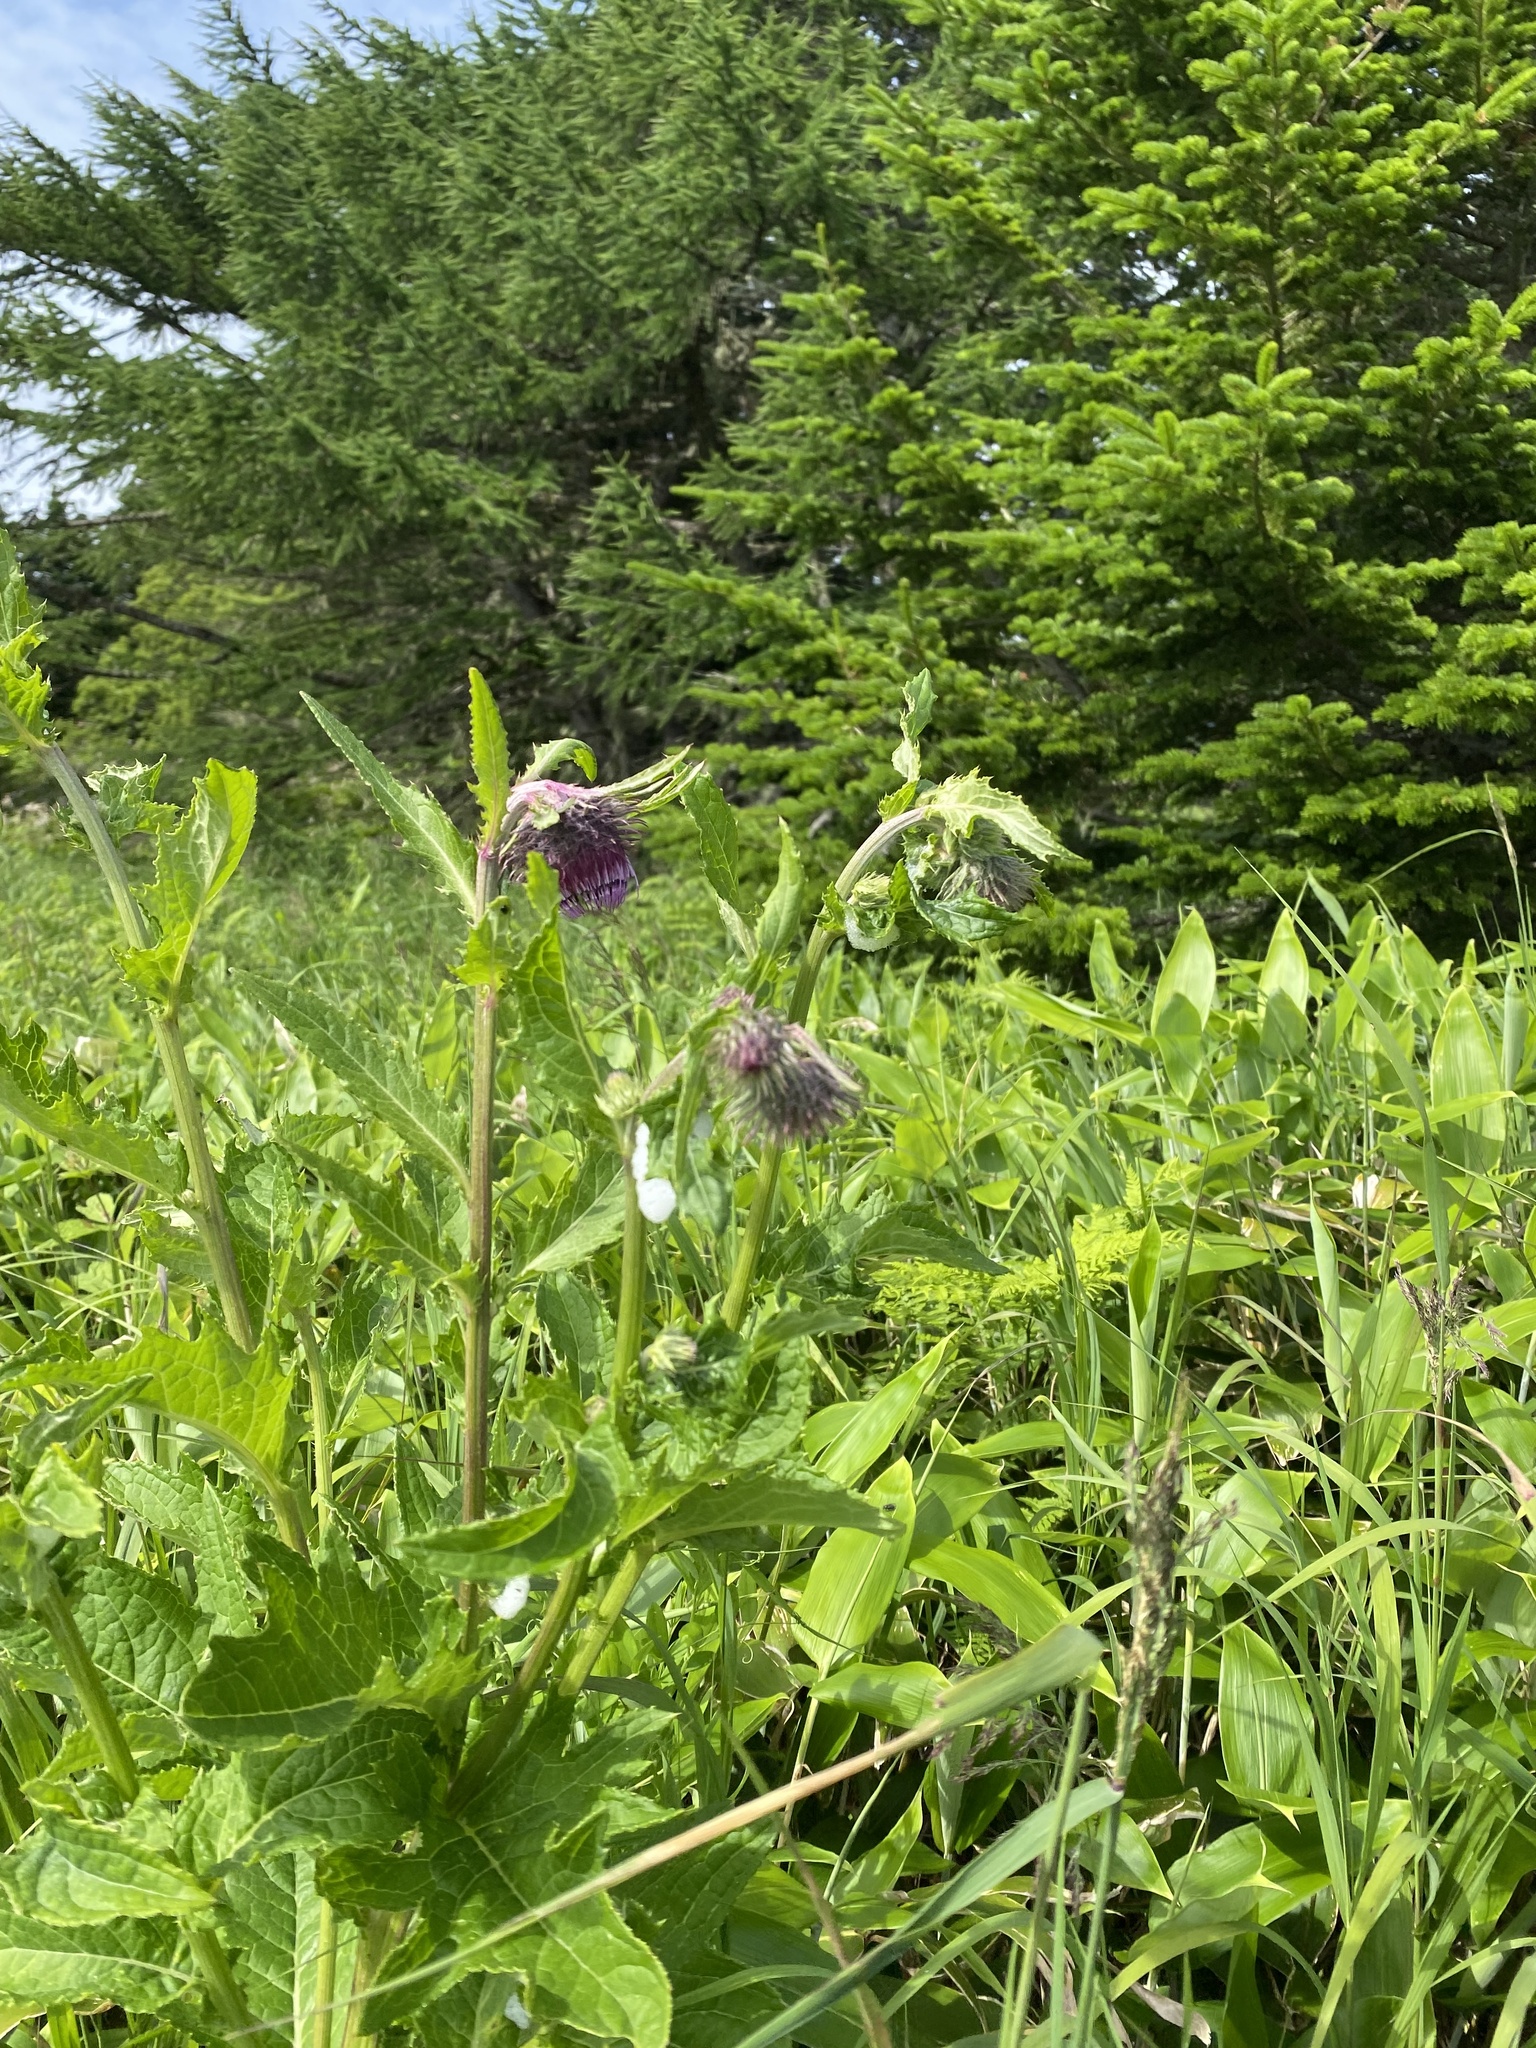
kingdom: Plantae
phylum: Tracheophyta
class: Magnoliopsida
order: Asterales
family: Asteraceae
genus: Cirsium
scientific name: Cirsium kamtschaticum
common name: Kamchatka thistle
